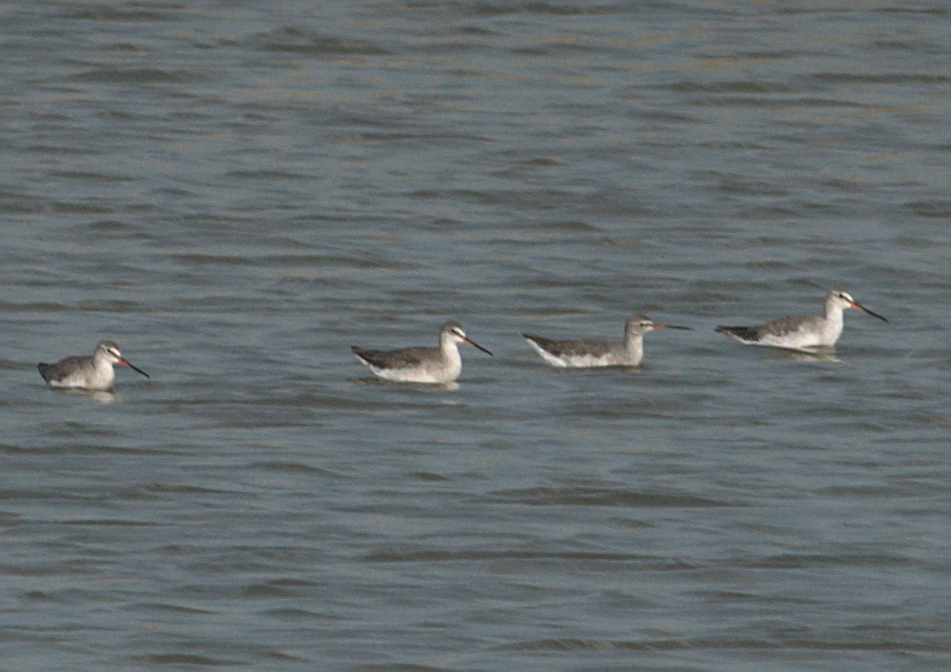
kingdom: Animalia
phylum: Chordata
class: Aves
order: Charadriiformes
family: Scolopacidae
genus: Tringa
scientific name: Tringa erythropus
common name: Spotted redshank
